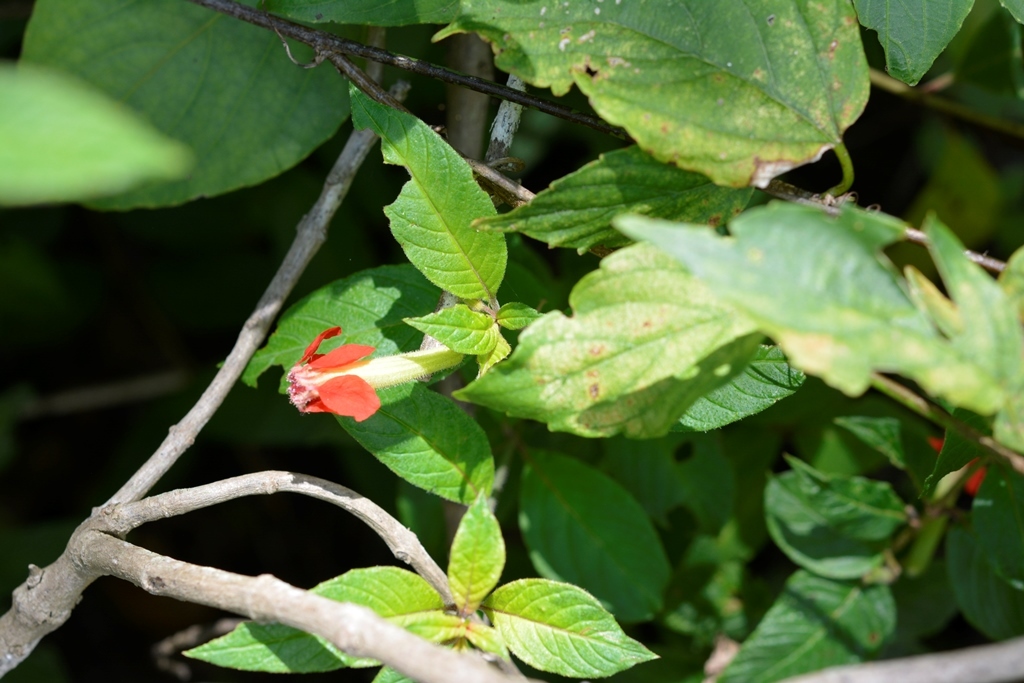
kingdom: Plantae
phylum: Tracheophyta
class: Magnoliopsida
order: Myrtales
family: Lythraceae
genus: Cuphea
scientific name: Cuphea intermedia
